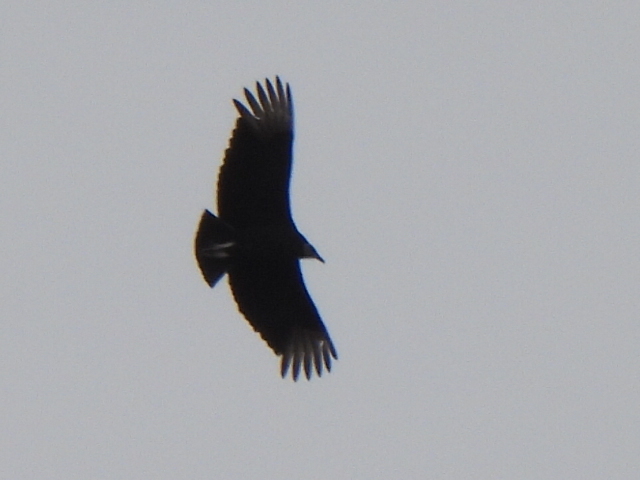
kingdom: Animalia
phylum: Chordata
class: Aves
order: Accipitriformes
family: Cathartidae
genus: Coragyps
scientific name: Coragyps atratus
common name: Black vulture
